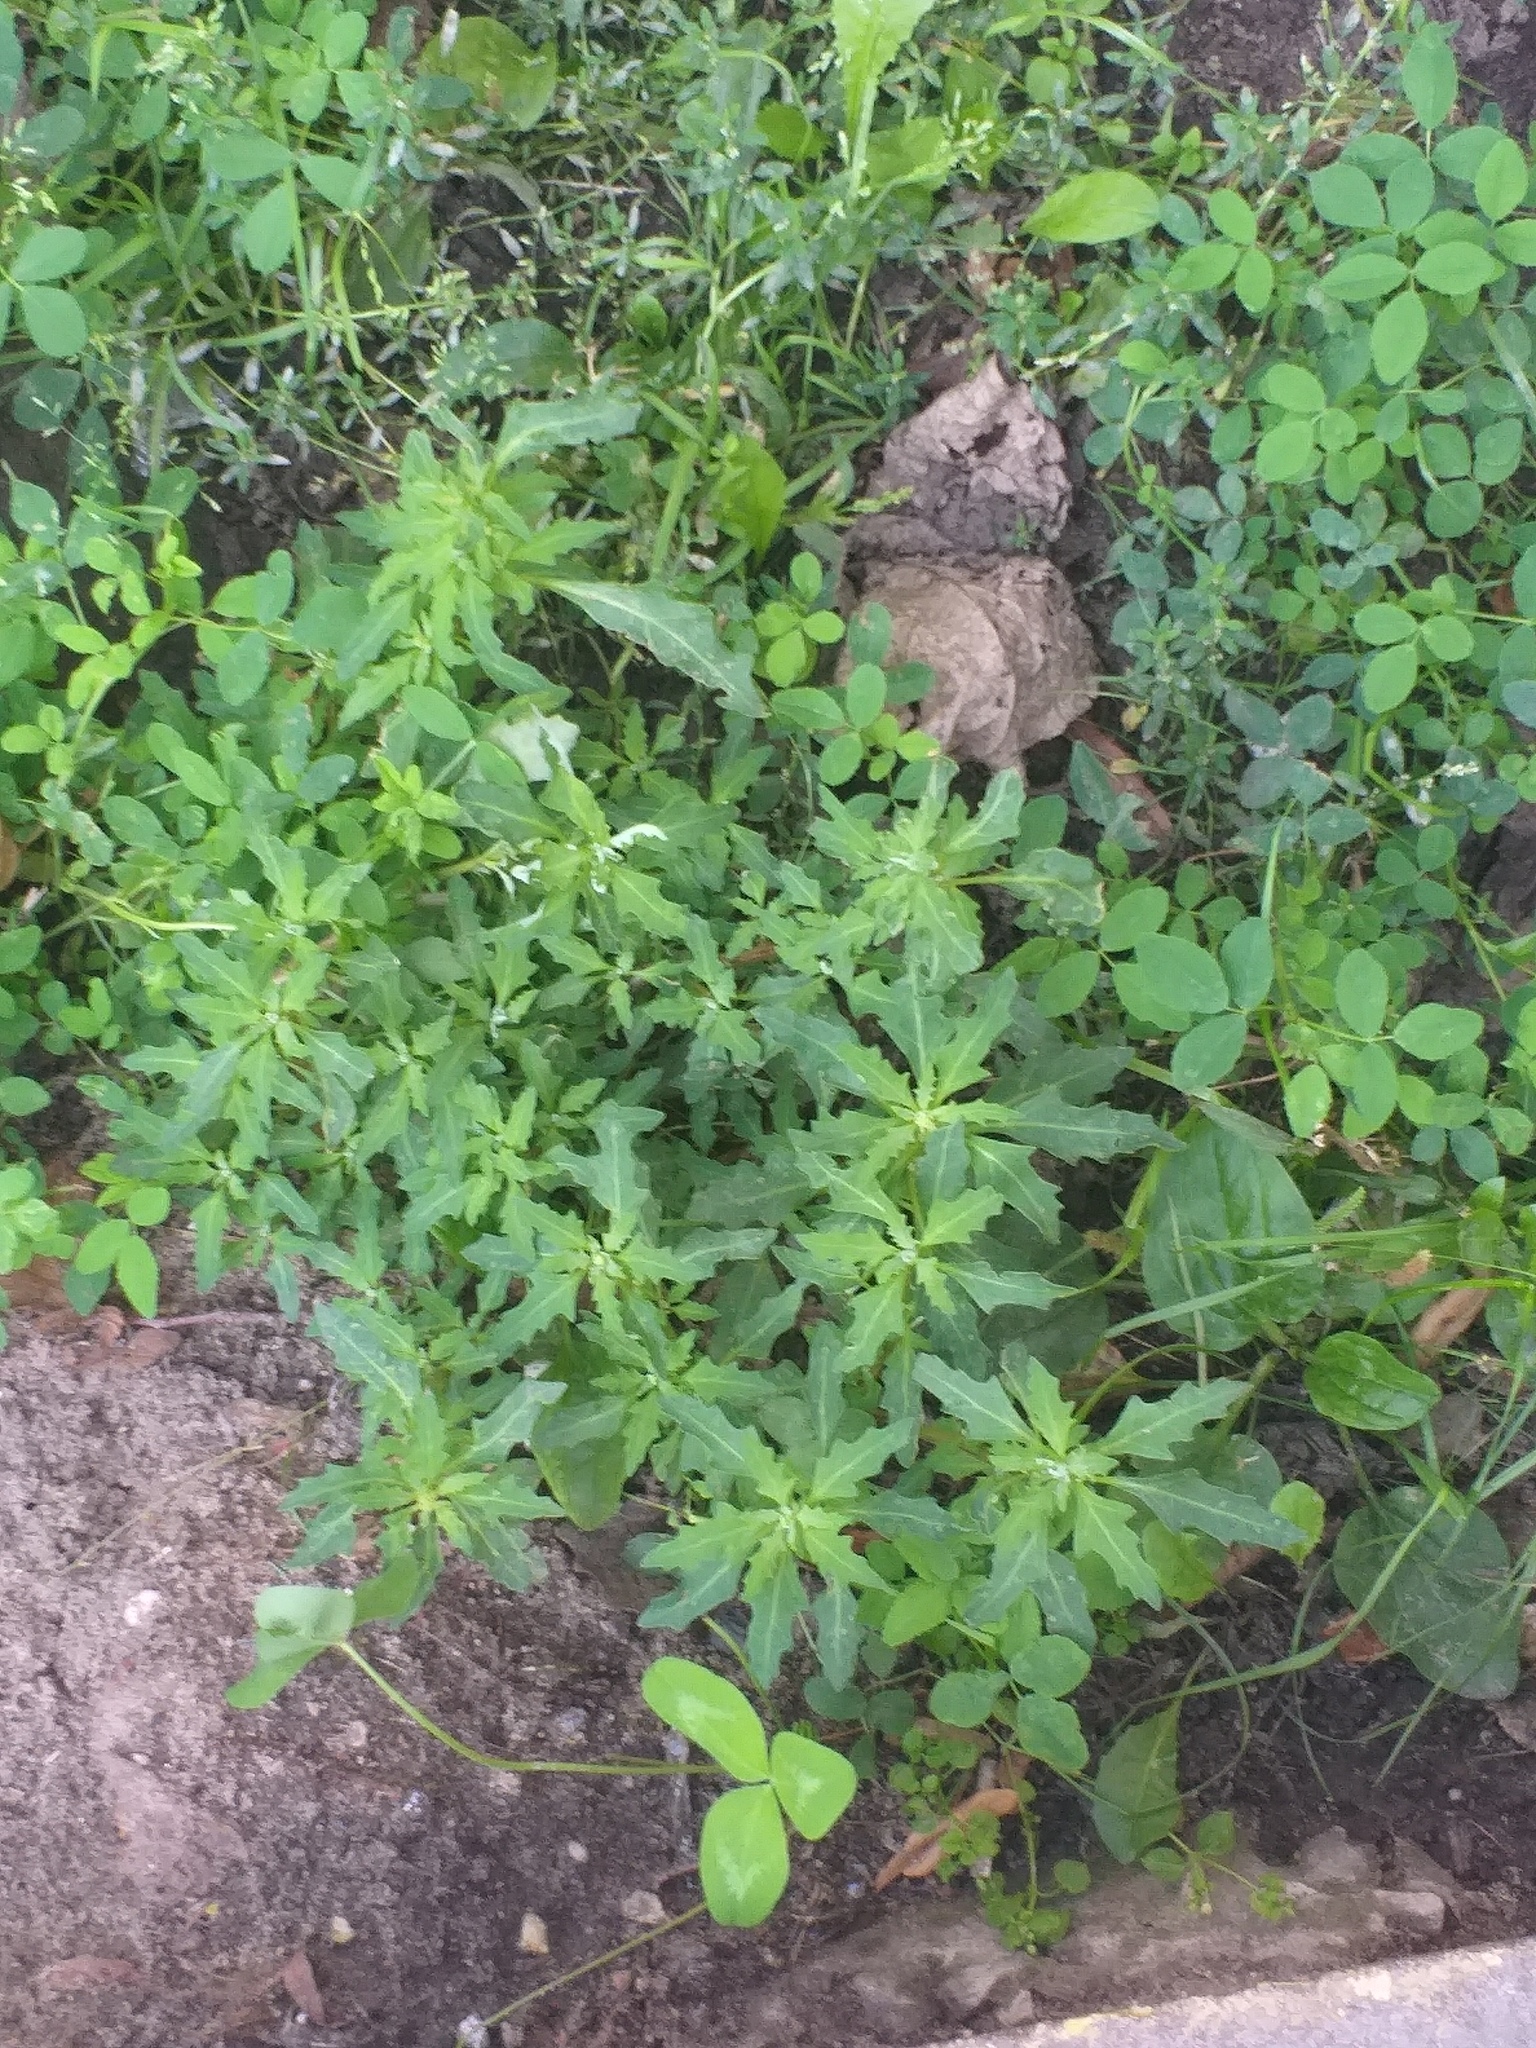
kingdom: Plantae
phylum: Tracheophyta
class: Magnoliopsida
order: Caryophyllales
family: Amaranthaceae
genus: Oxybasis
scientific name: Oxybasis glauca
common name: Glaucous goosefoot
